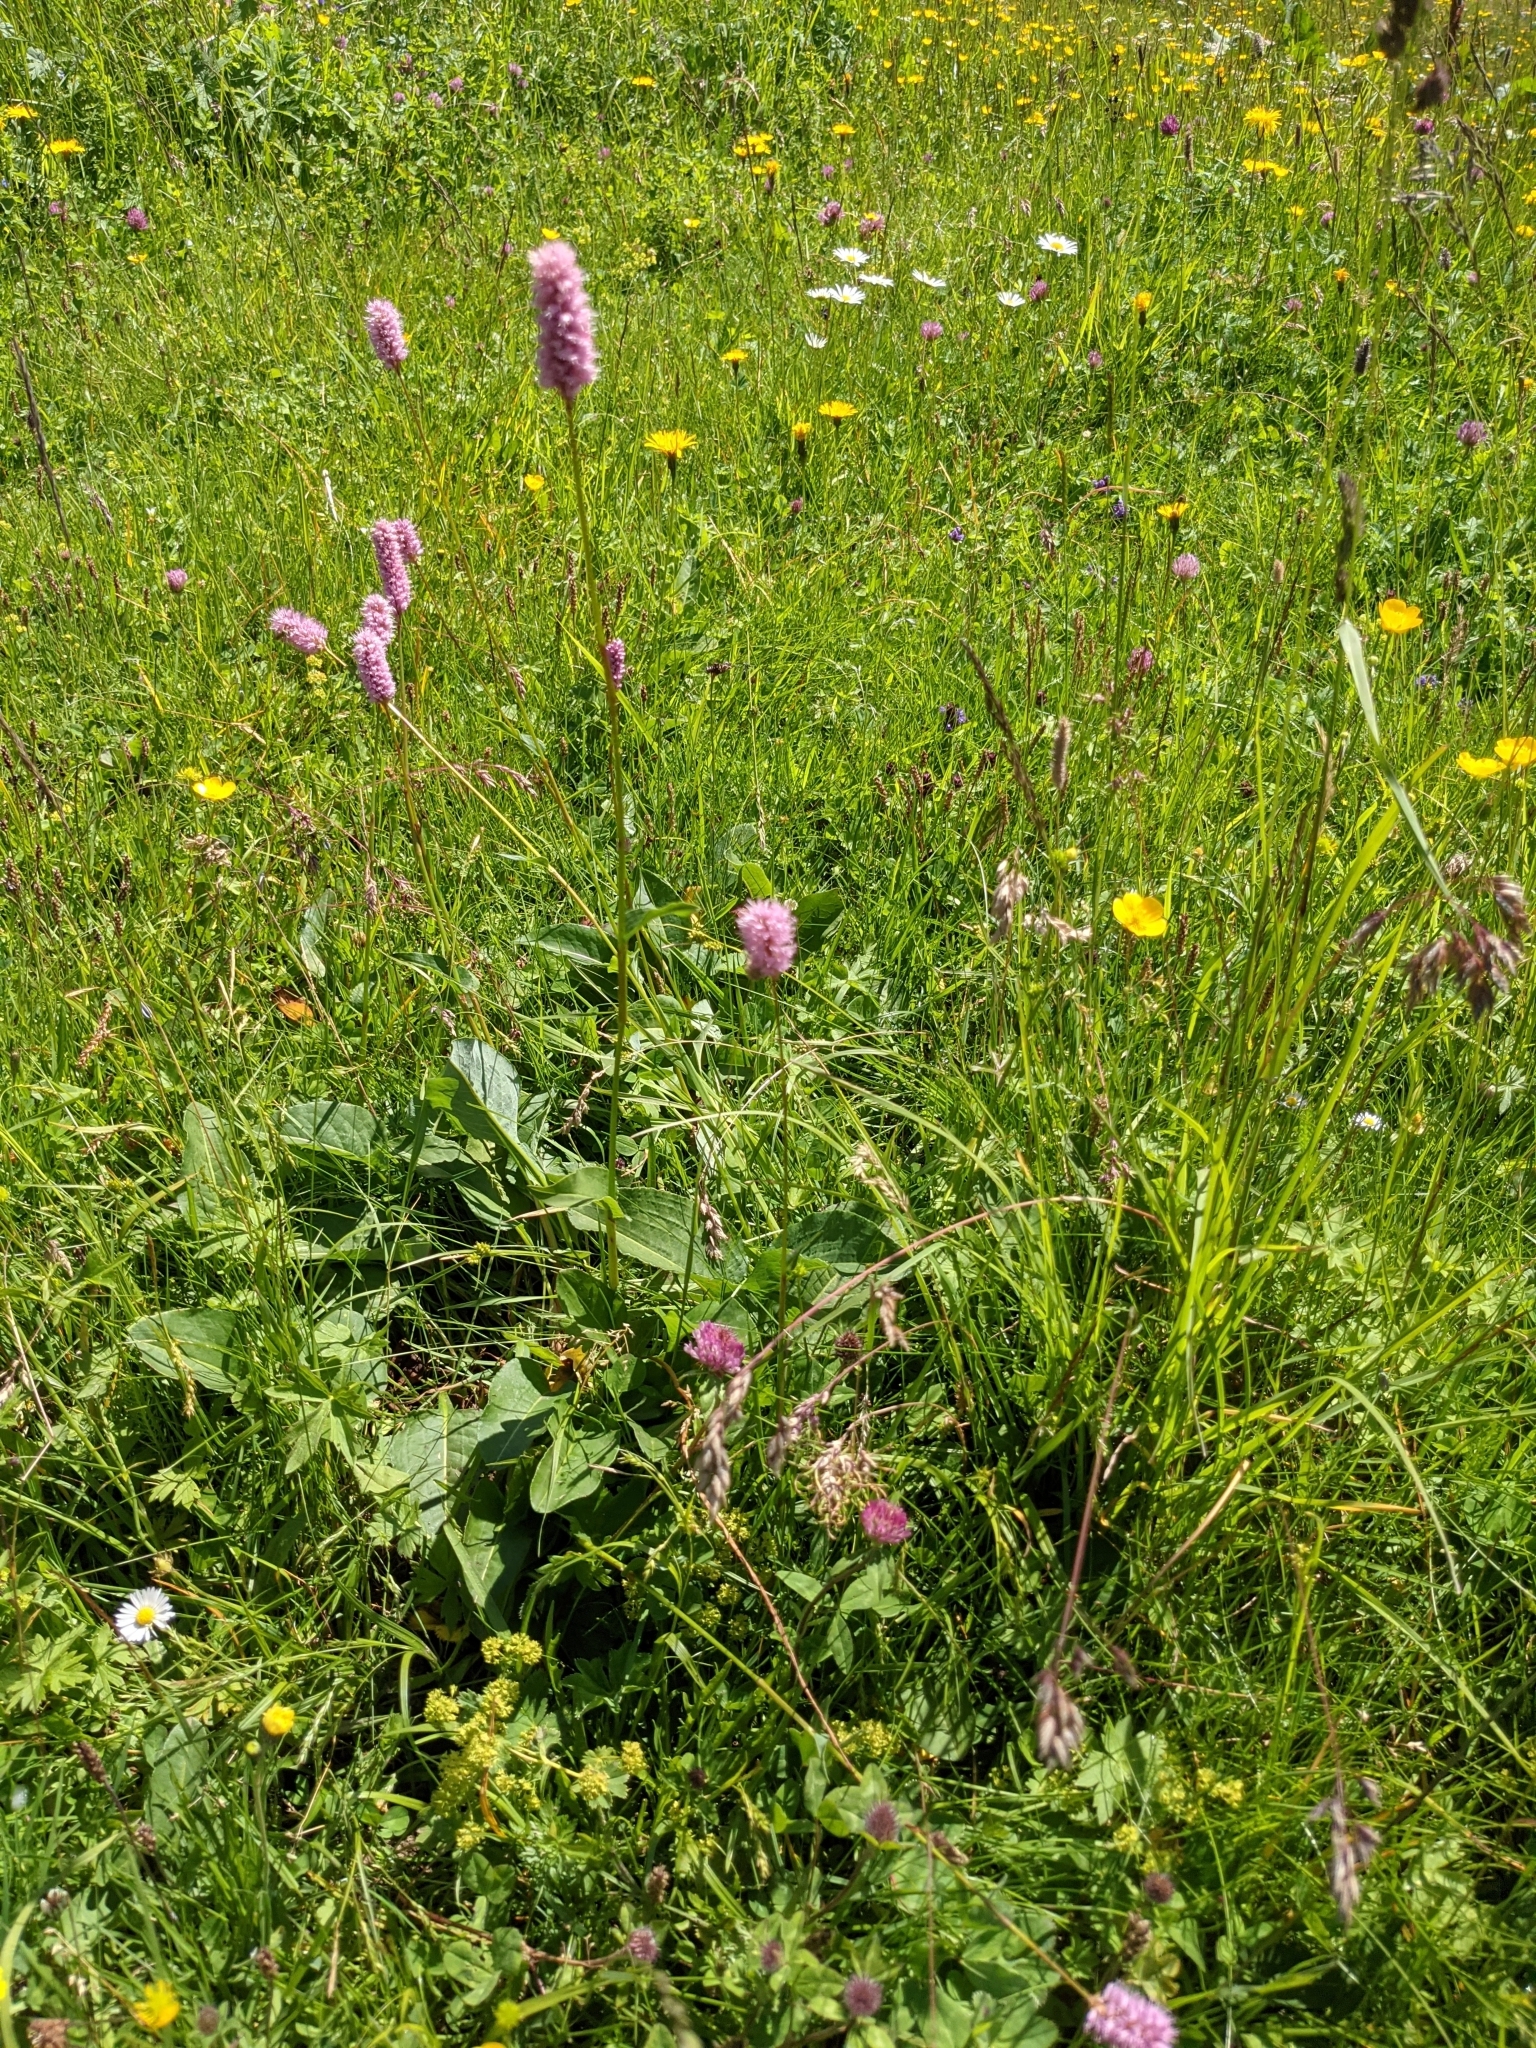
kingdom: Plantae
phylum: Tracheophyta
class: Magnoliopsida
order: Caryophyllales
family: Polygonaceae
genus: Bistorta
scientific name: Bistorta officinalis
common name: Common bistort
